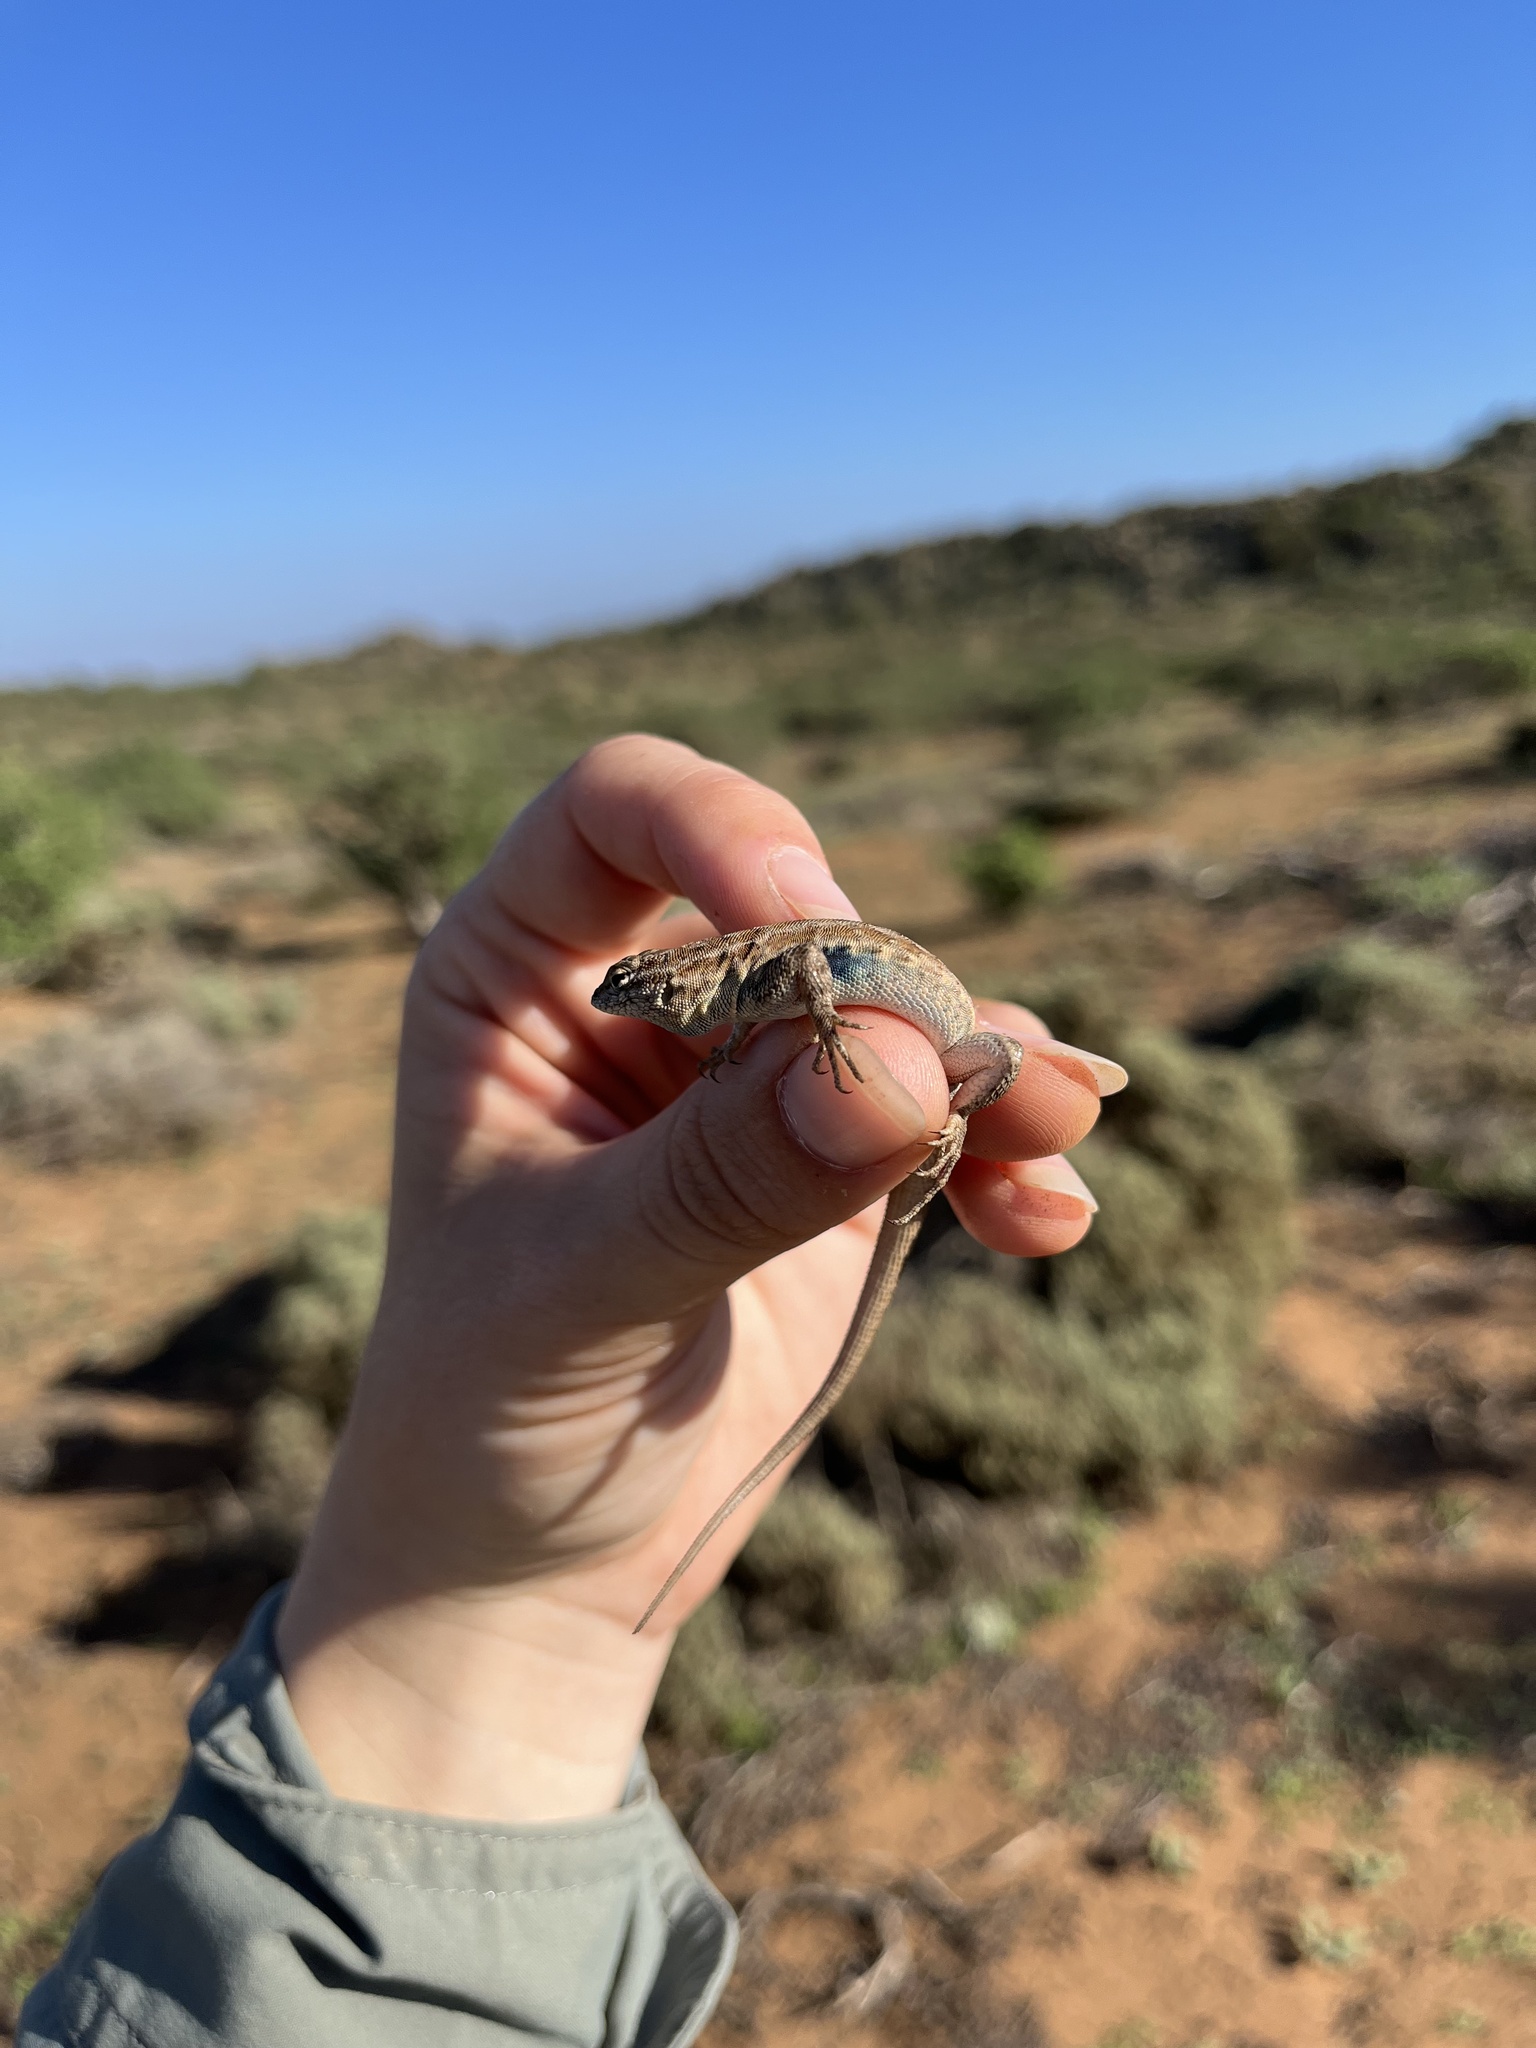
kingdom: Animalia
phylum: Chordata
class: Squamata
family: Phrynosomatidae
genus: Uta
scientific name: Uta stansburiana
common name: Side-blotched lizard
